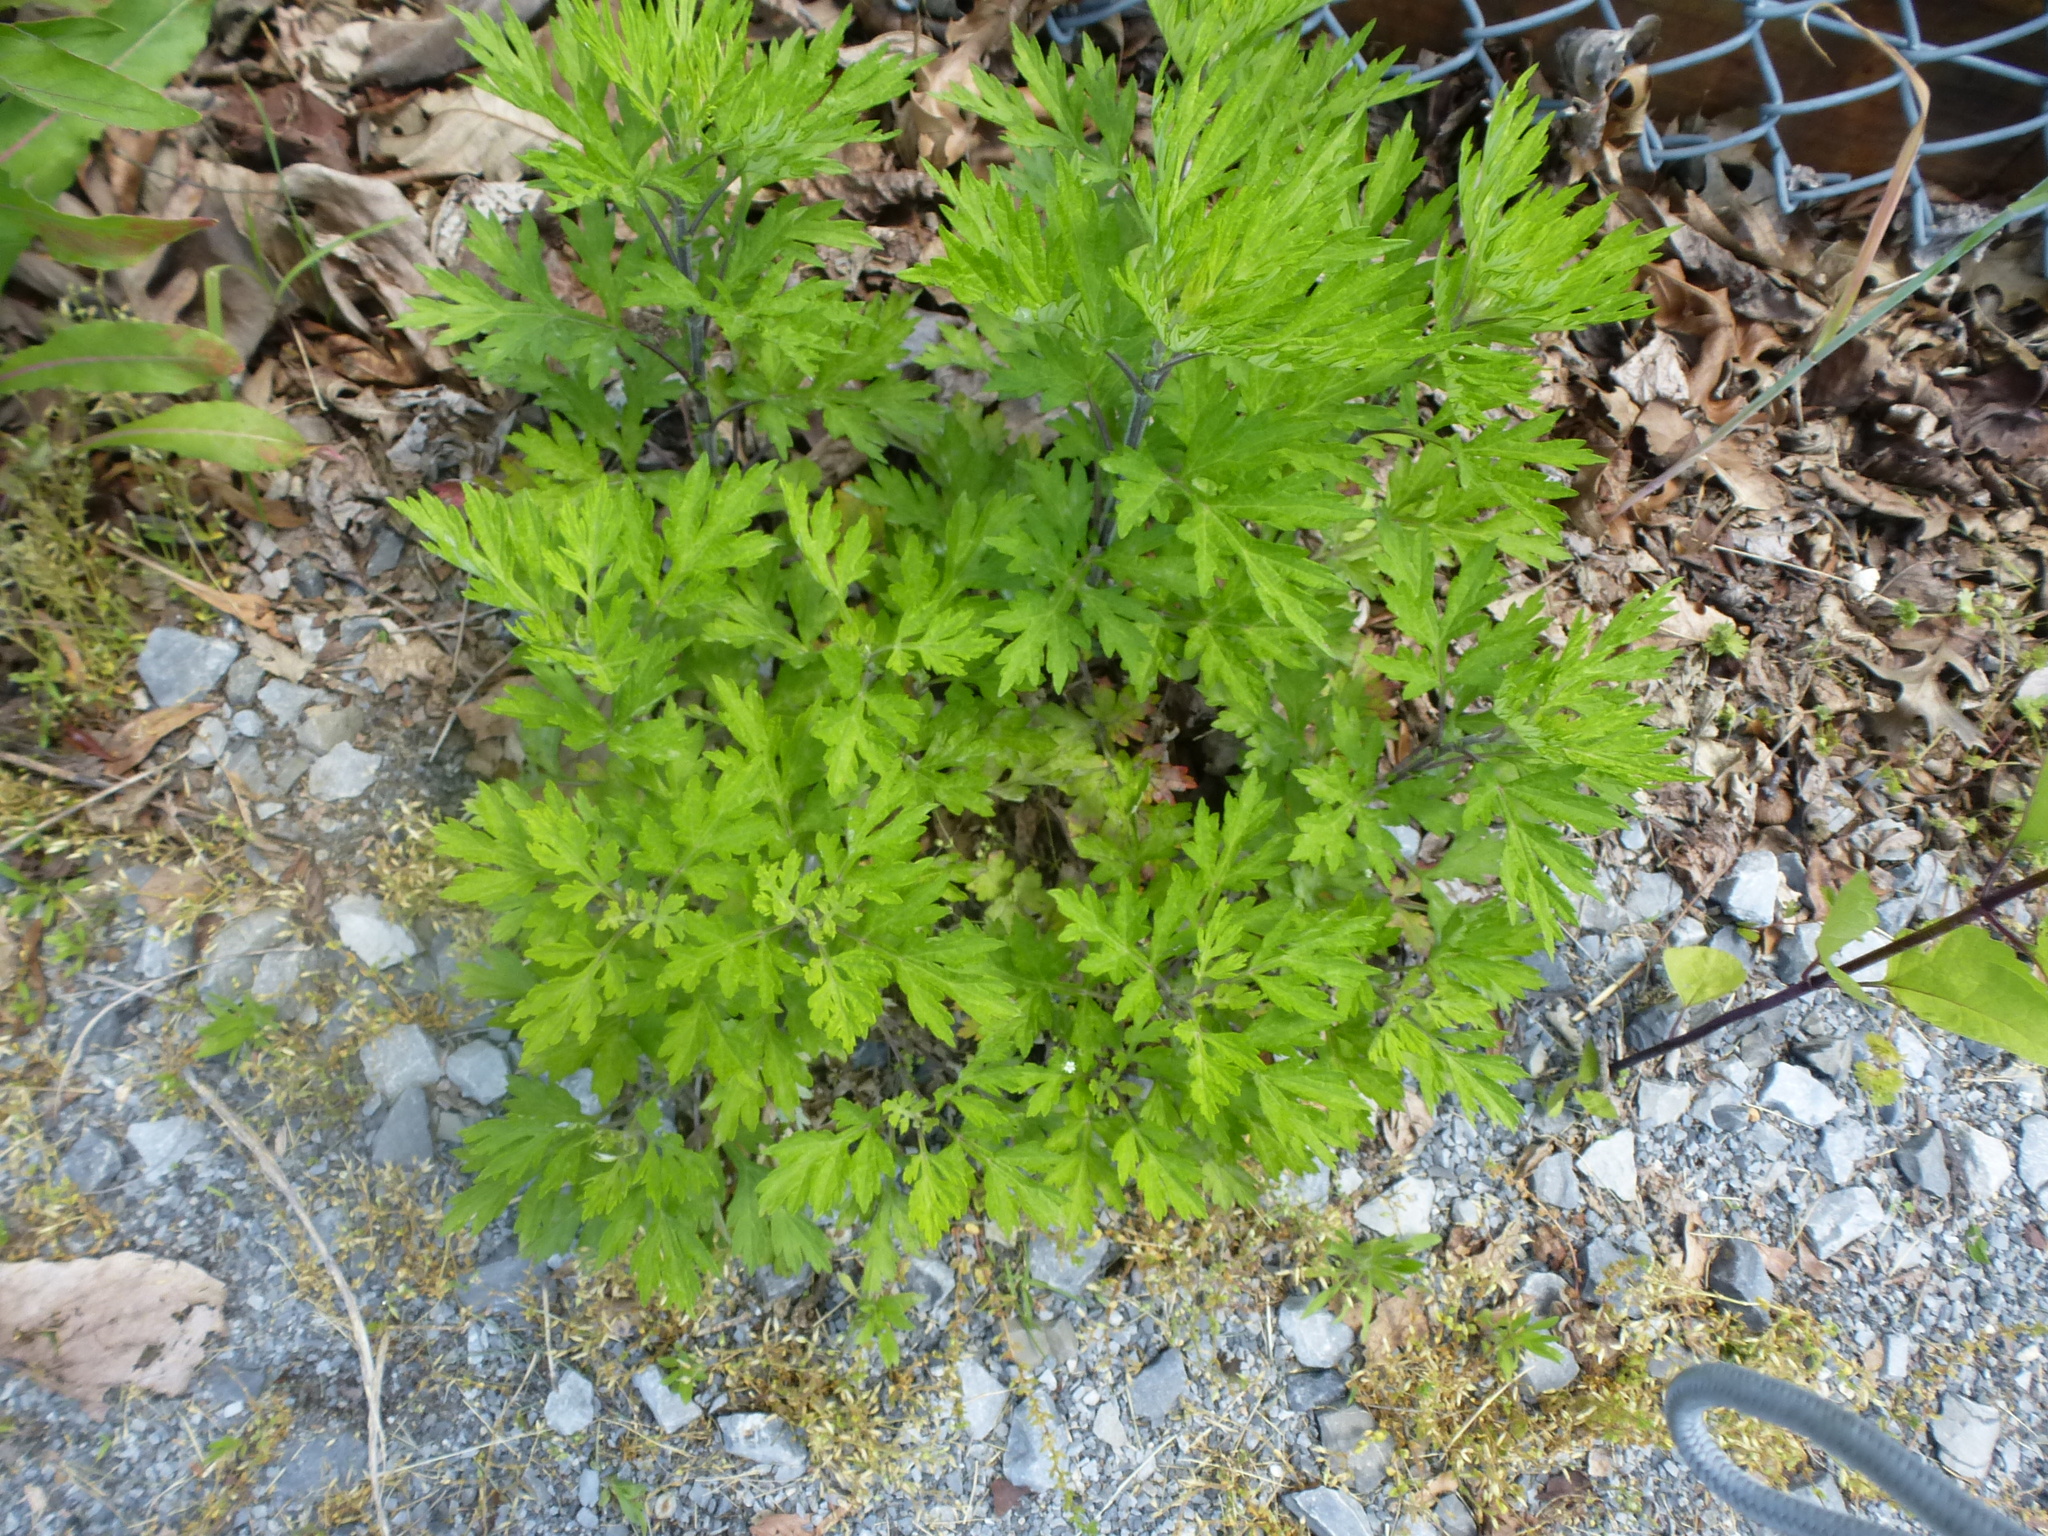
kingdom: Plantae
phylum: Tracheophyta
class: Magnoliopsida
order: Asterales
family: Asteraceae
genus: Artemisia
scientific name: Artemisia vulgaris
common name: Mugwort
